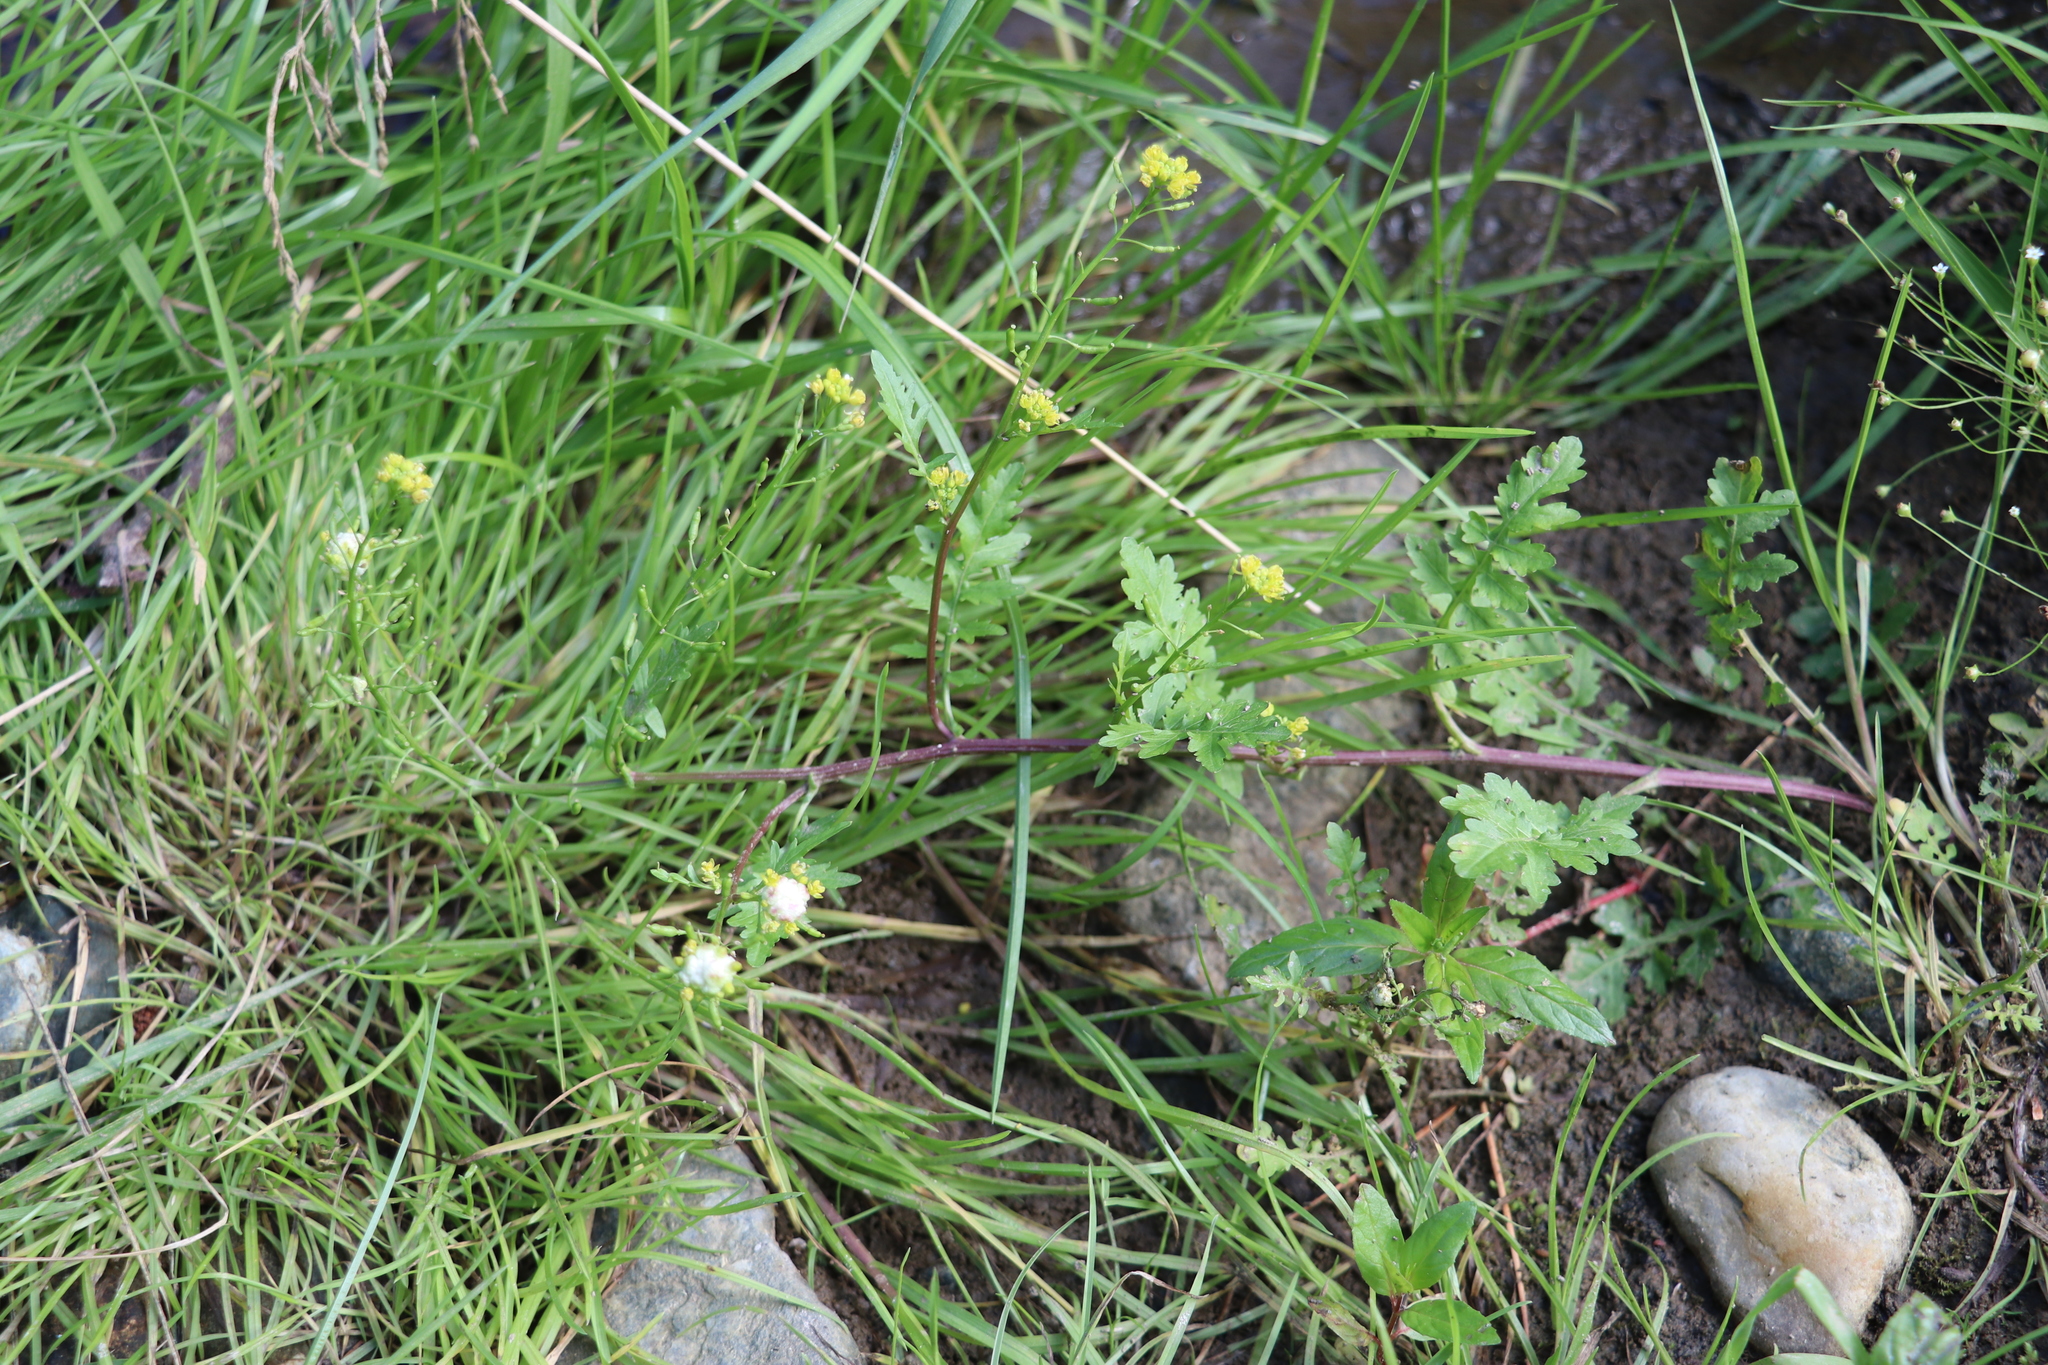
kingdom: Plantae
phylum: Tracheophyta
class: Magnoliopsida
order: Brassicales
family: Brassicaceae
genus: Rorippa
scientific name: Rorippa palustris
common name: Marsh yellow-cress
